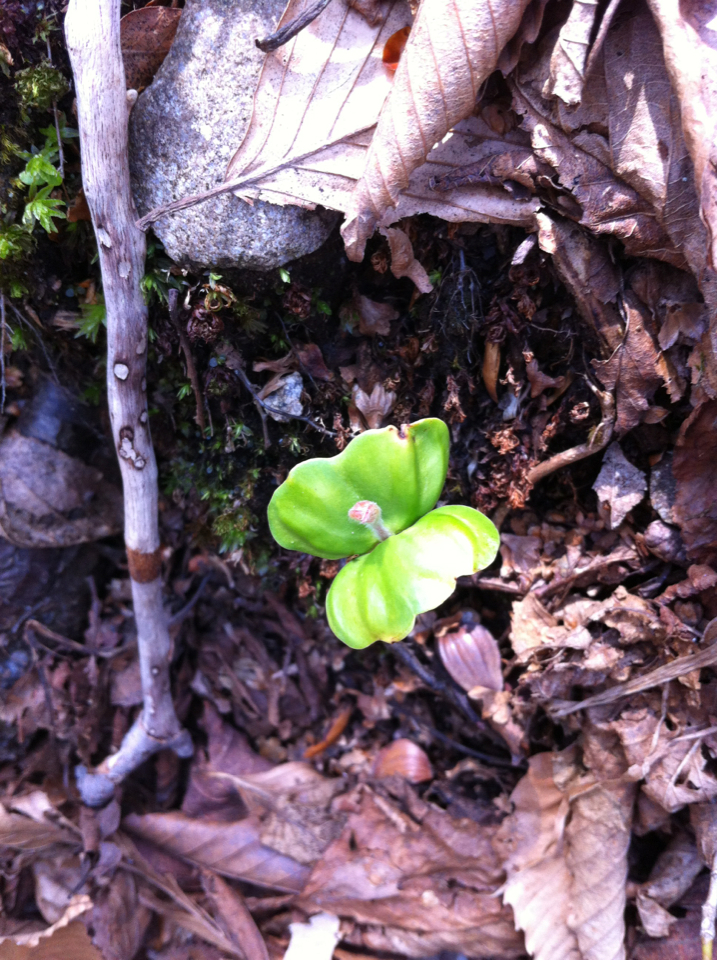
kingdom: Plantae
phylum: Tracheophyta
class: Magnoliopsida
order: Fagales
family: Fagaceae
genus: Fagus
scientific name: Fagus grandifolia
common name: American beech
